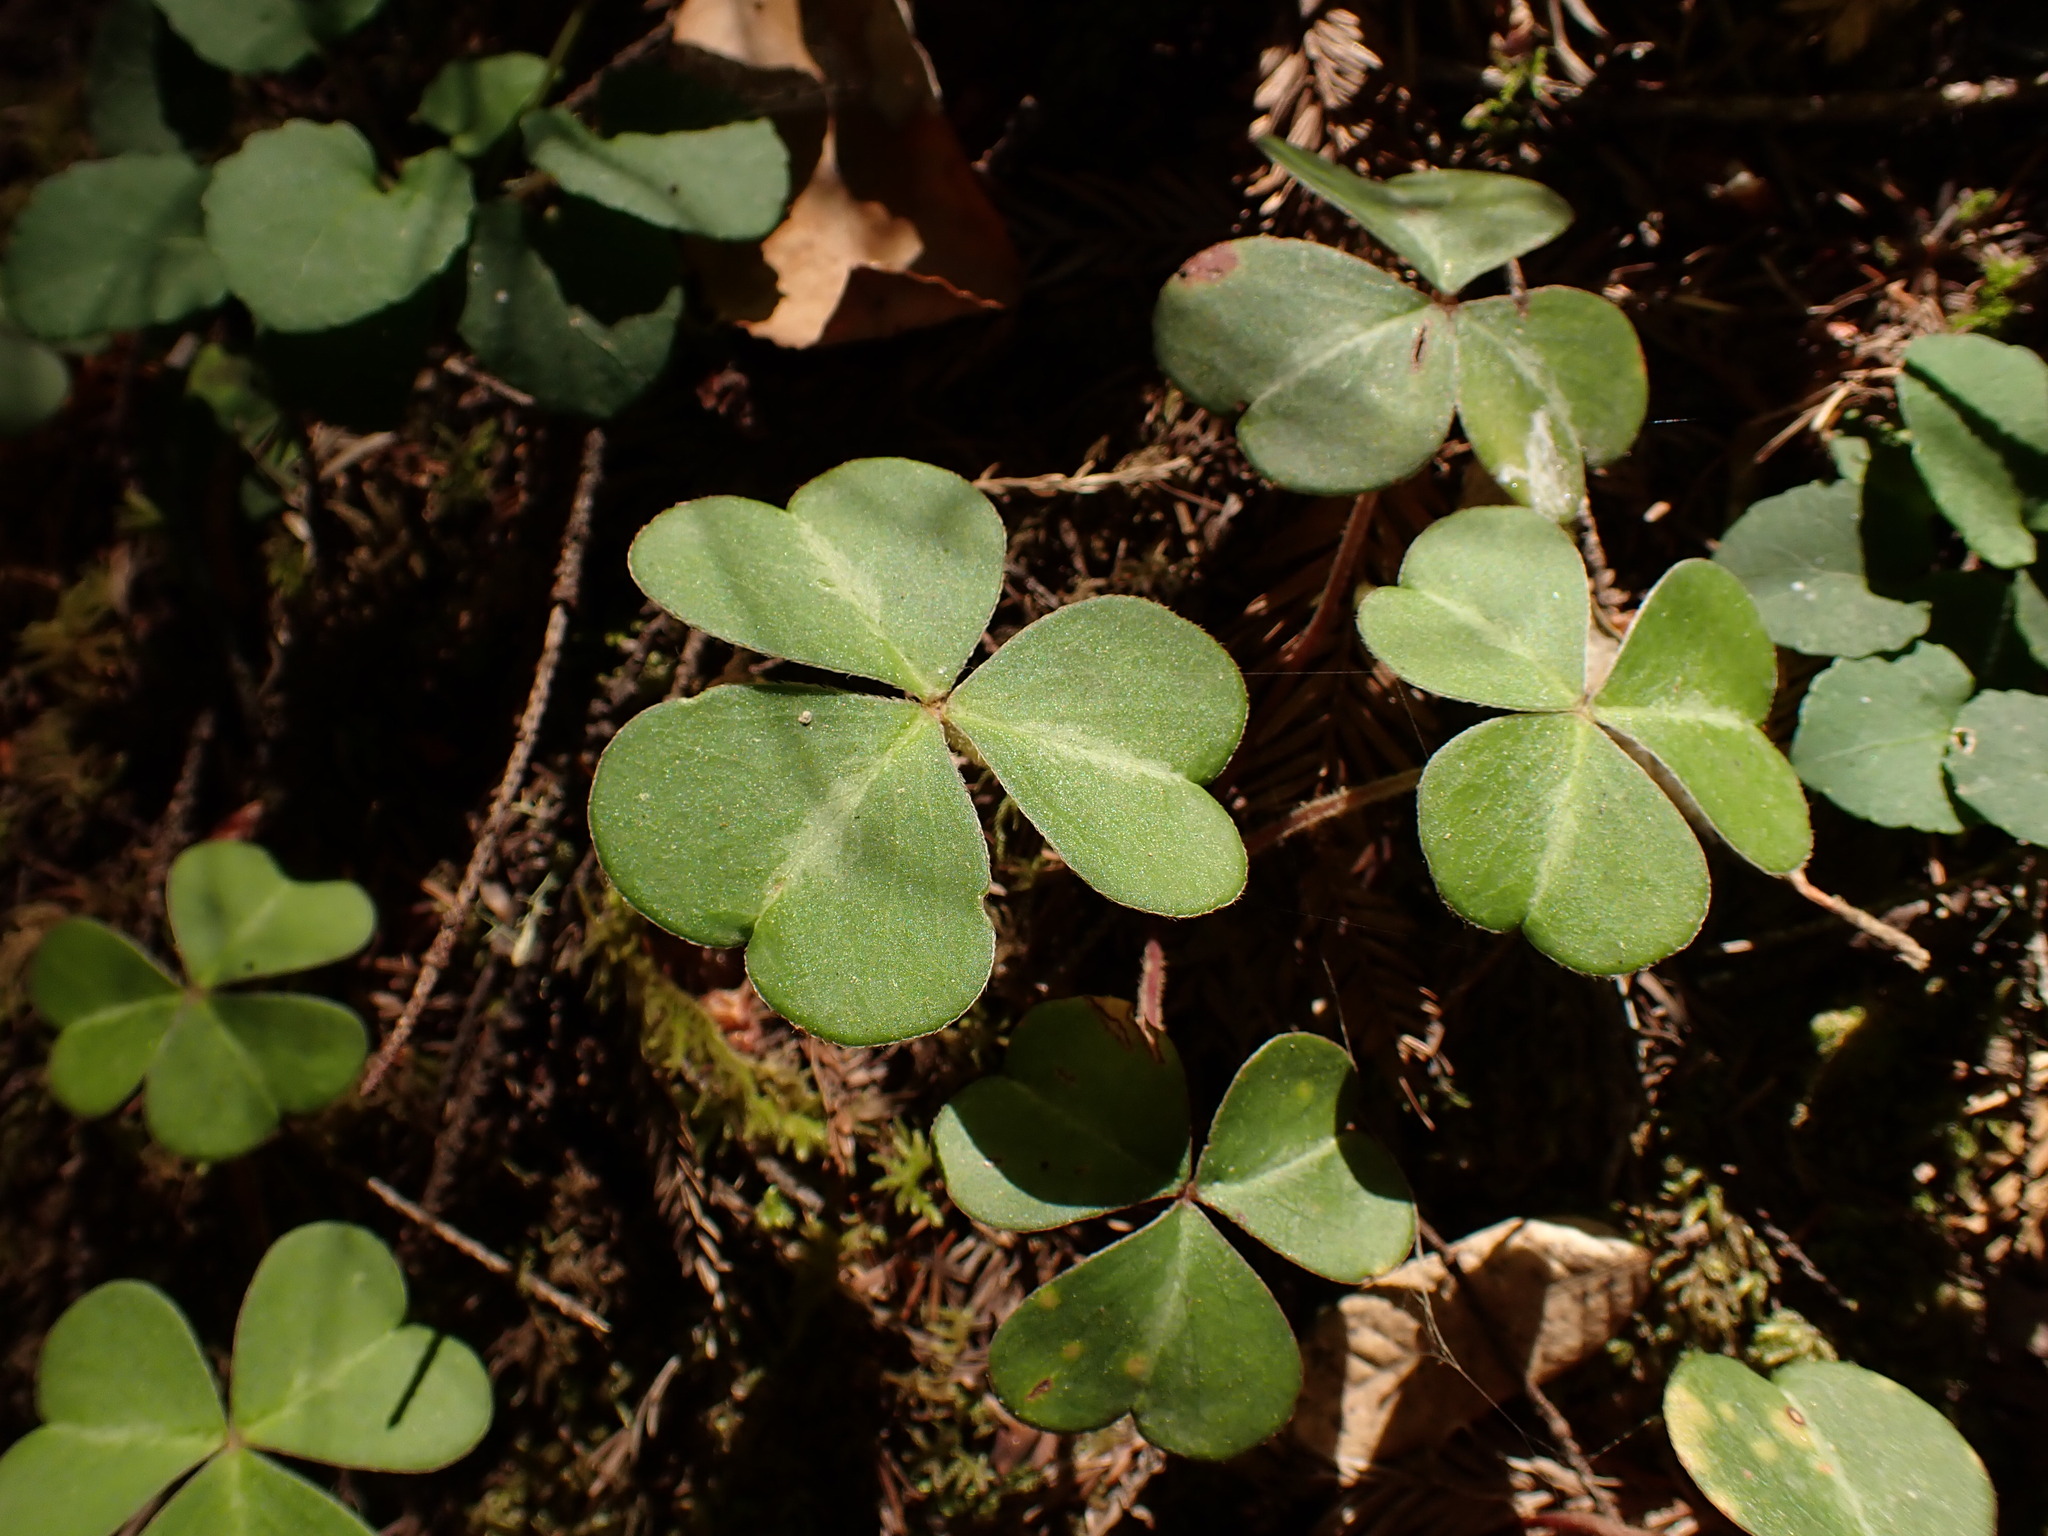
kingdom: Plantae
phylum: Tracheophyta
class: Magnoliopsida
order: Oxalidales
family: Oxalidaceae
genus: Oxalis
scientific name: Oxalis oregana
